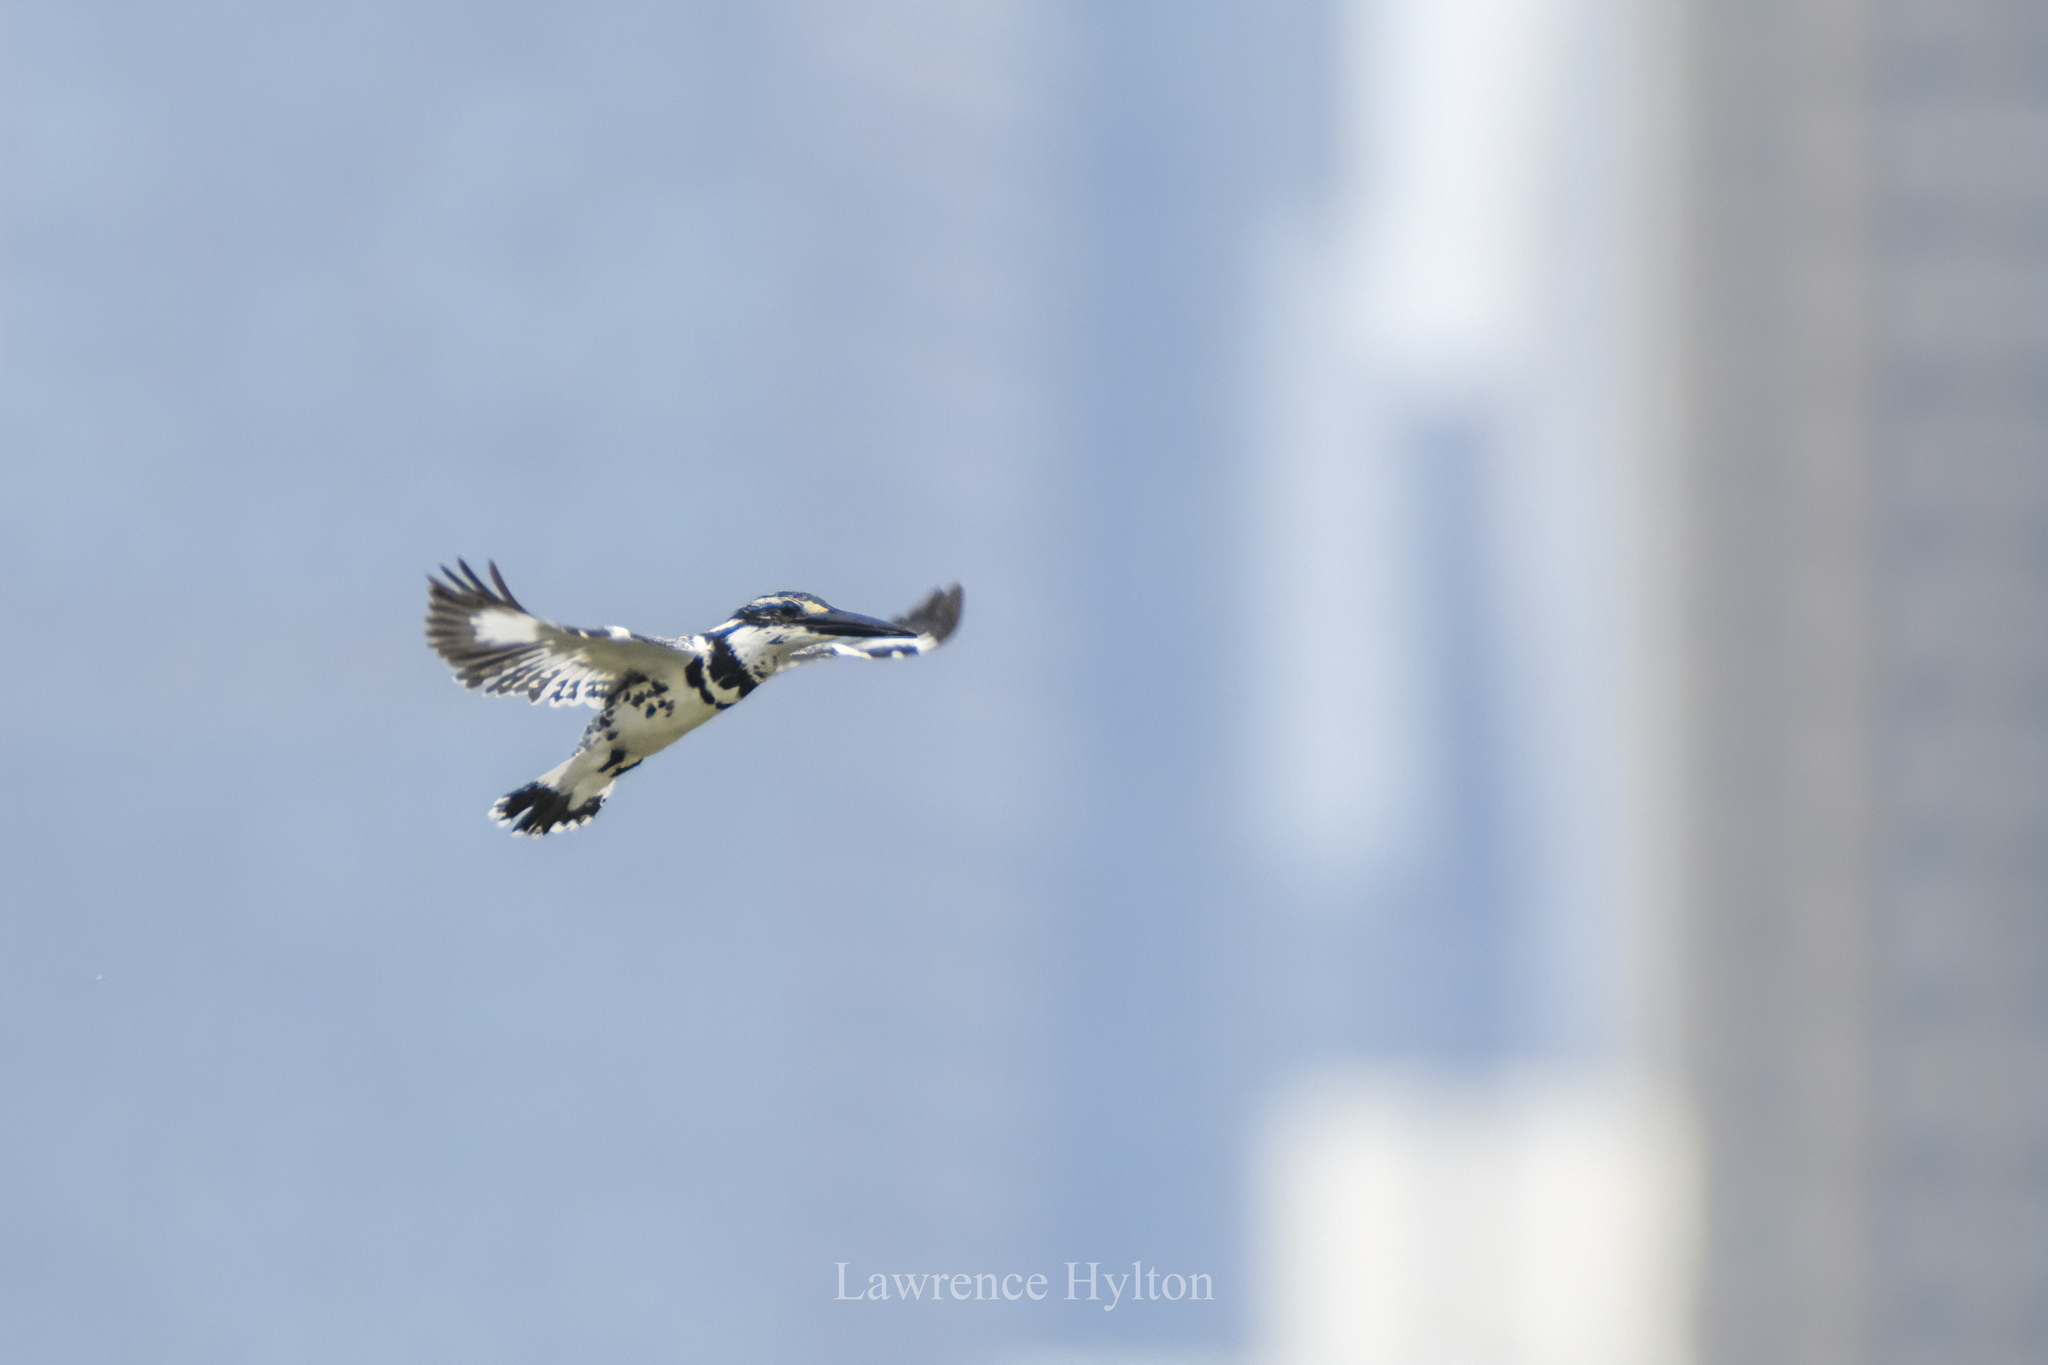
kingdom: Animalia
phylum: Chordata
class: Aves
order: Coraciiformes
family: Alcedinidae
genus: Ceryle
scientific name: Ceryle rudis
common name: Pied kingfisher
